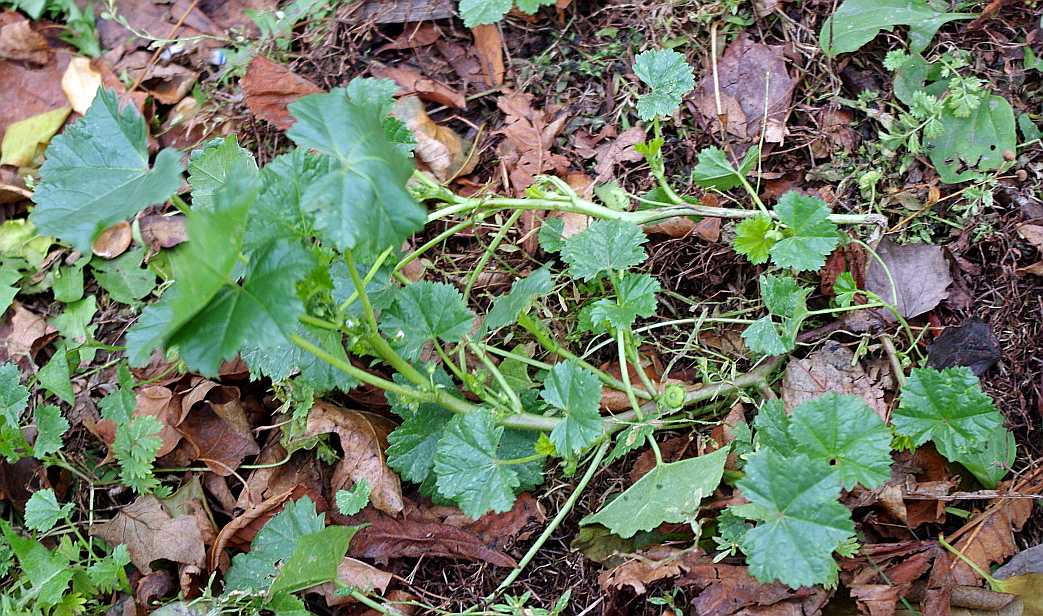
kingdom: Plantae
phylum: Tracheophyta
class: Magnoliopsida
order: Malvales
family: Malvaceae
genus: Malva
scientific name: Malva pusilla
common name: Small mallow
